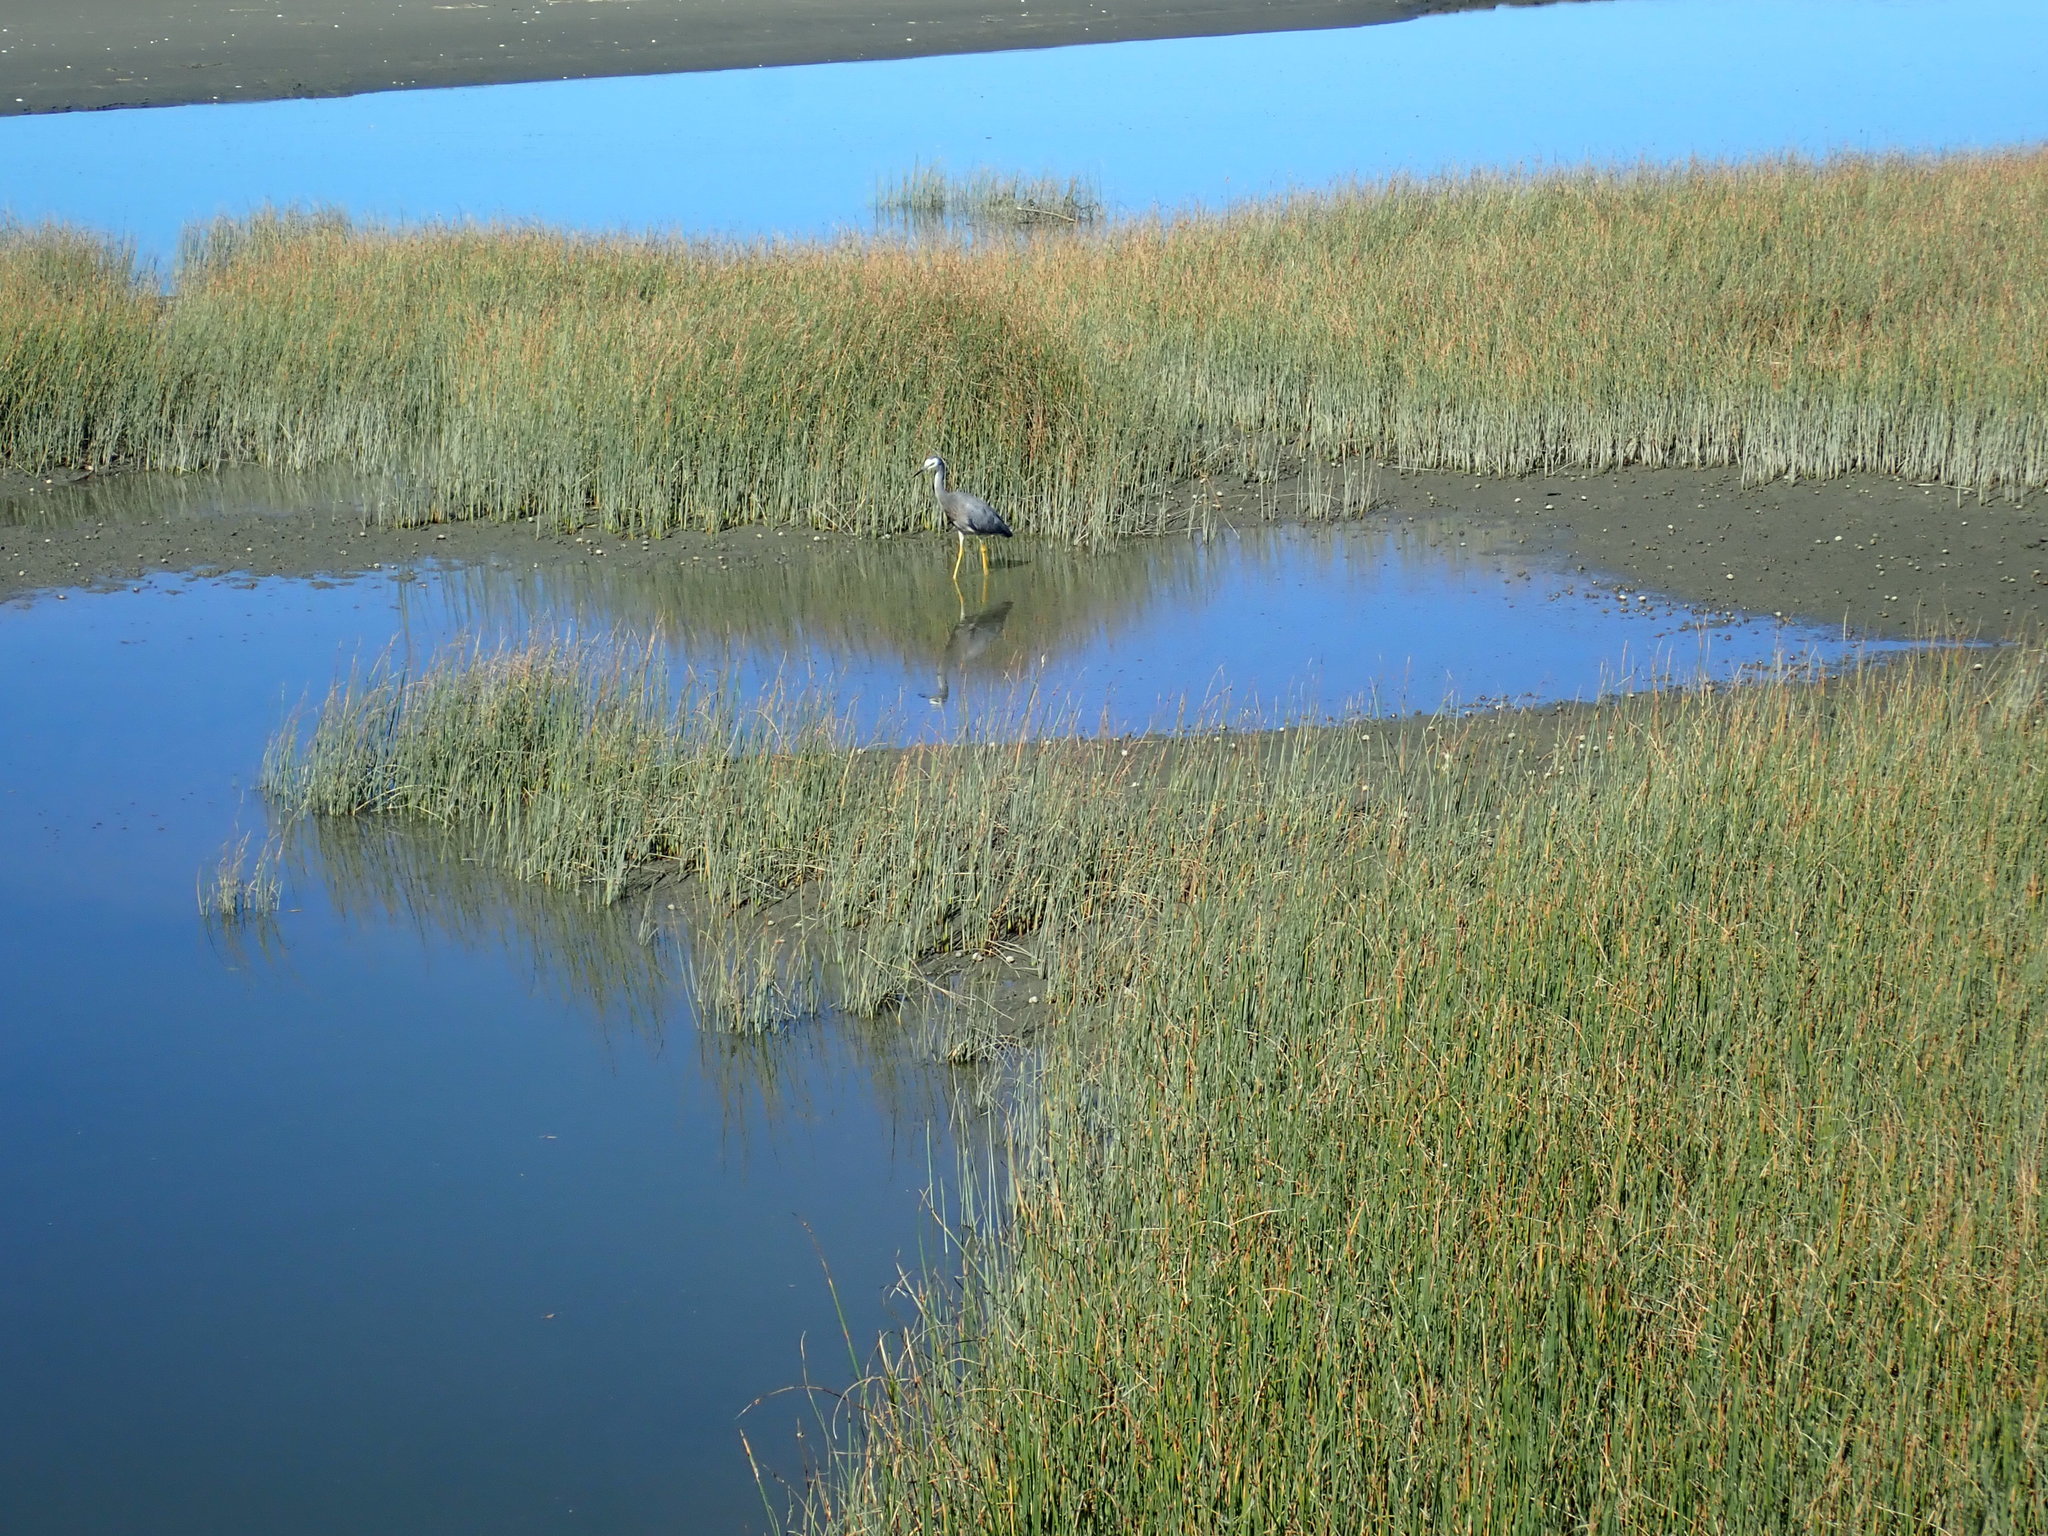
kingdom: Animalia
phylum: Chordata
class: Aves
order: Pelecaniformes
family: Ardeidae
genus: Egretta
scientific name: Egretta novaehollandiae
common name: White-faced heron
